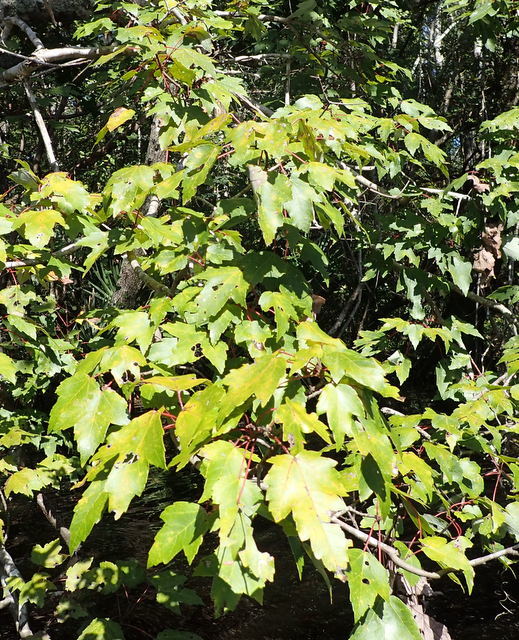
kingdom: Plantae
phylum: Tracheophyta
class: Magnoliopsida
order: Sapindales
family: Sapindaceae
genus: Acer
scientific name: Acer rubrum
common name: Red maple
